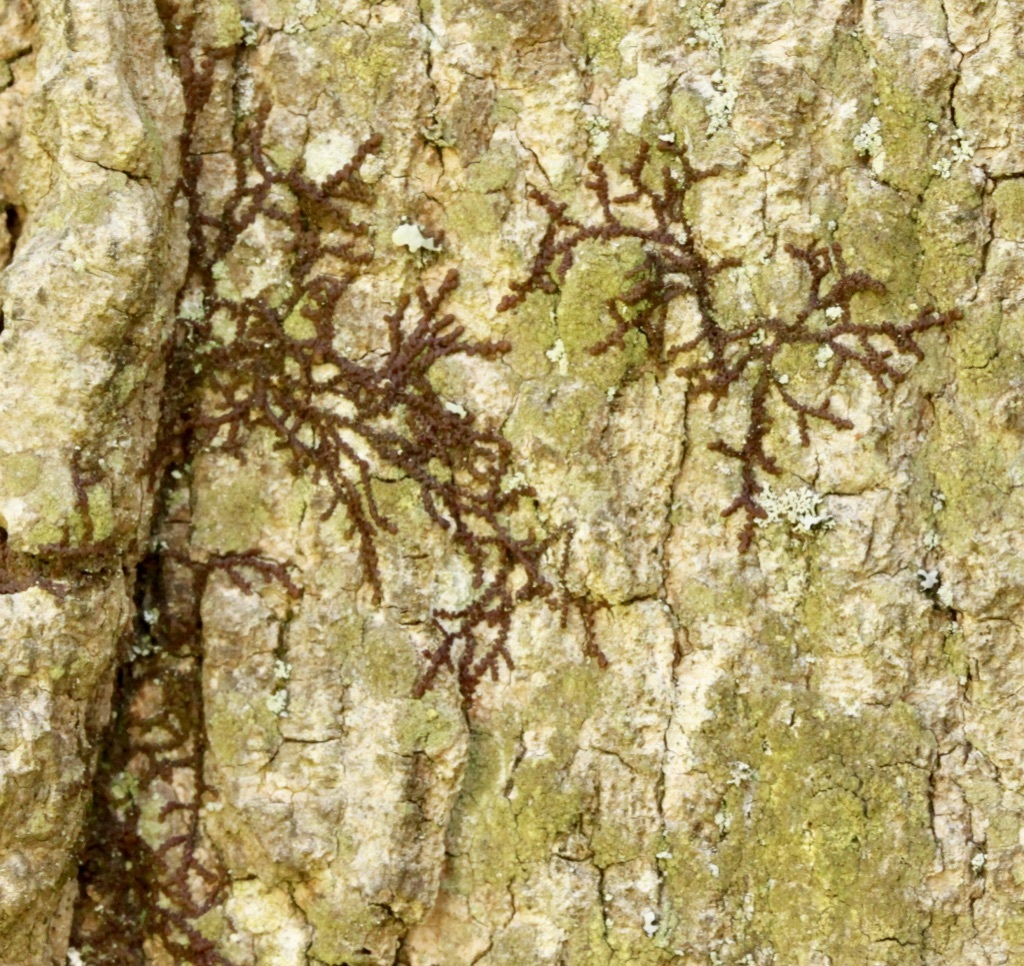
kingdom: Plantae
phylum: Marchantiophyta
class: Jungermanniopsida
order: Porellales
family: Frullaniaceae
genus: Frullania
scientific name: Frullania eboracensis
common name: New york scalewort
